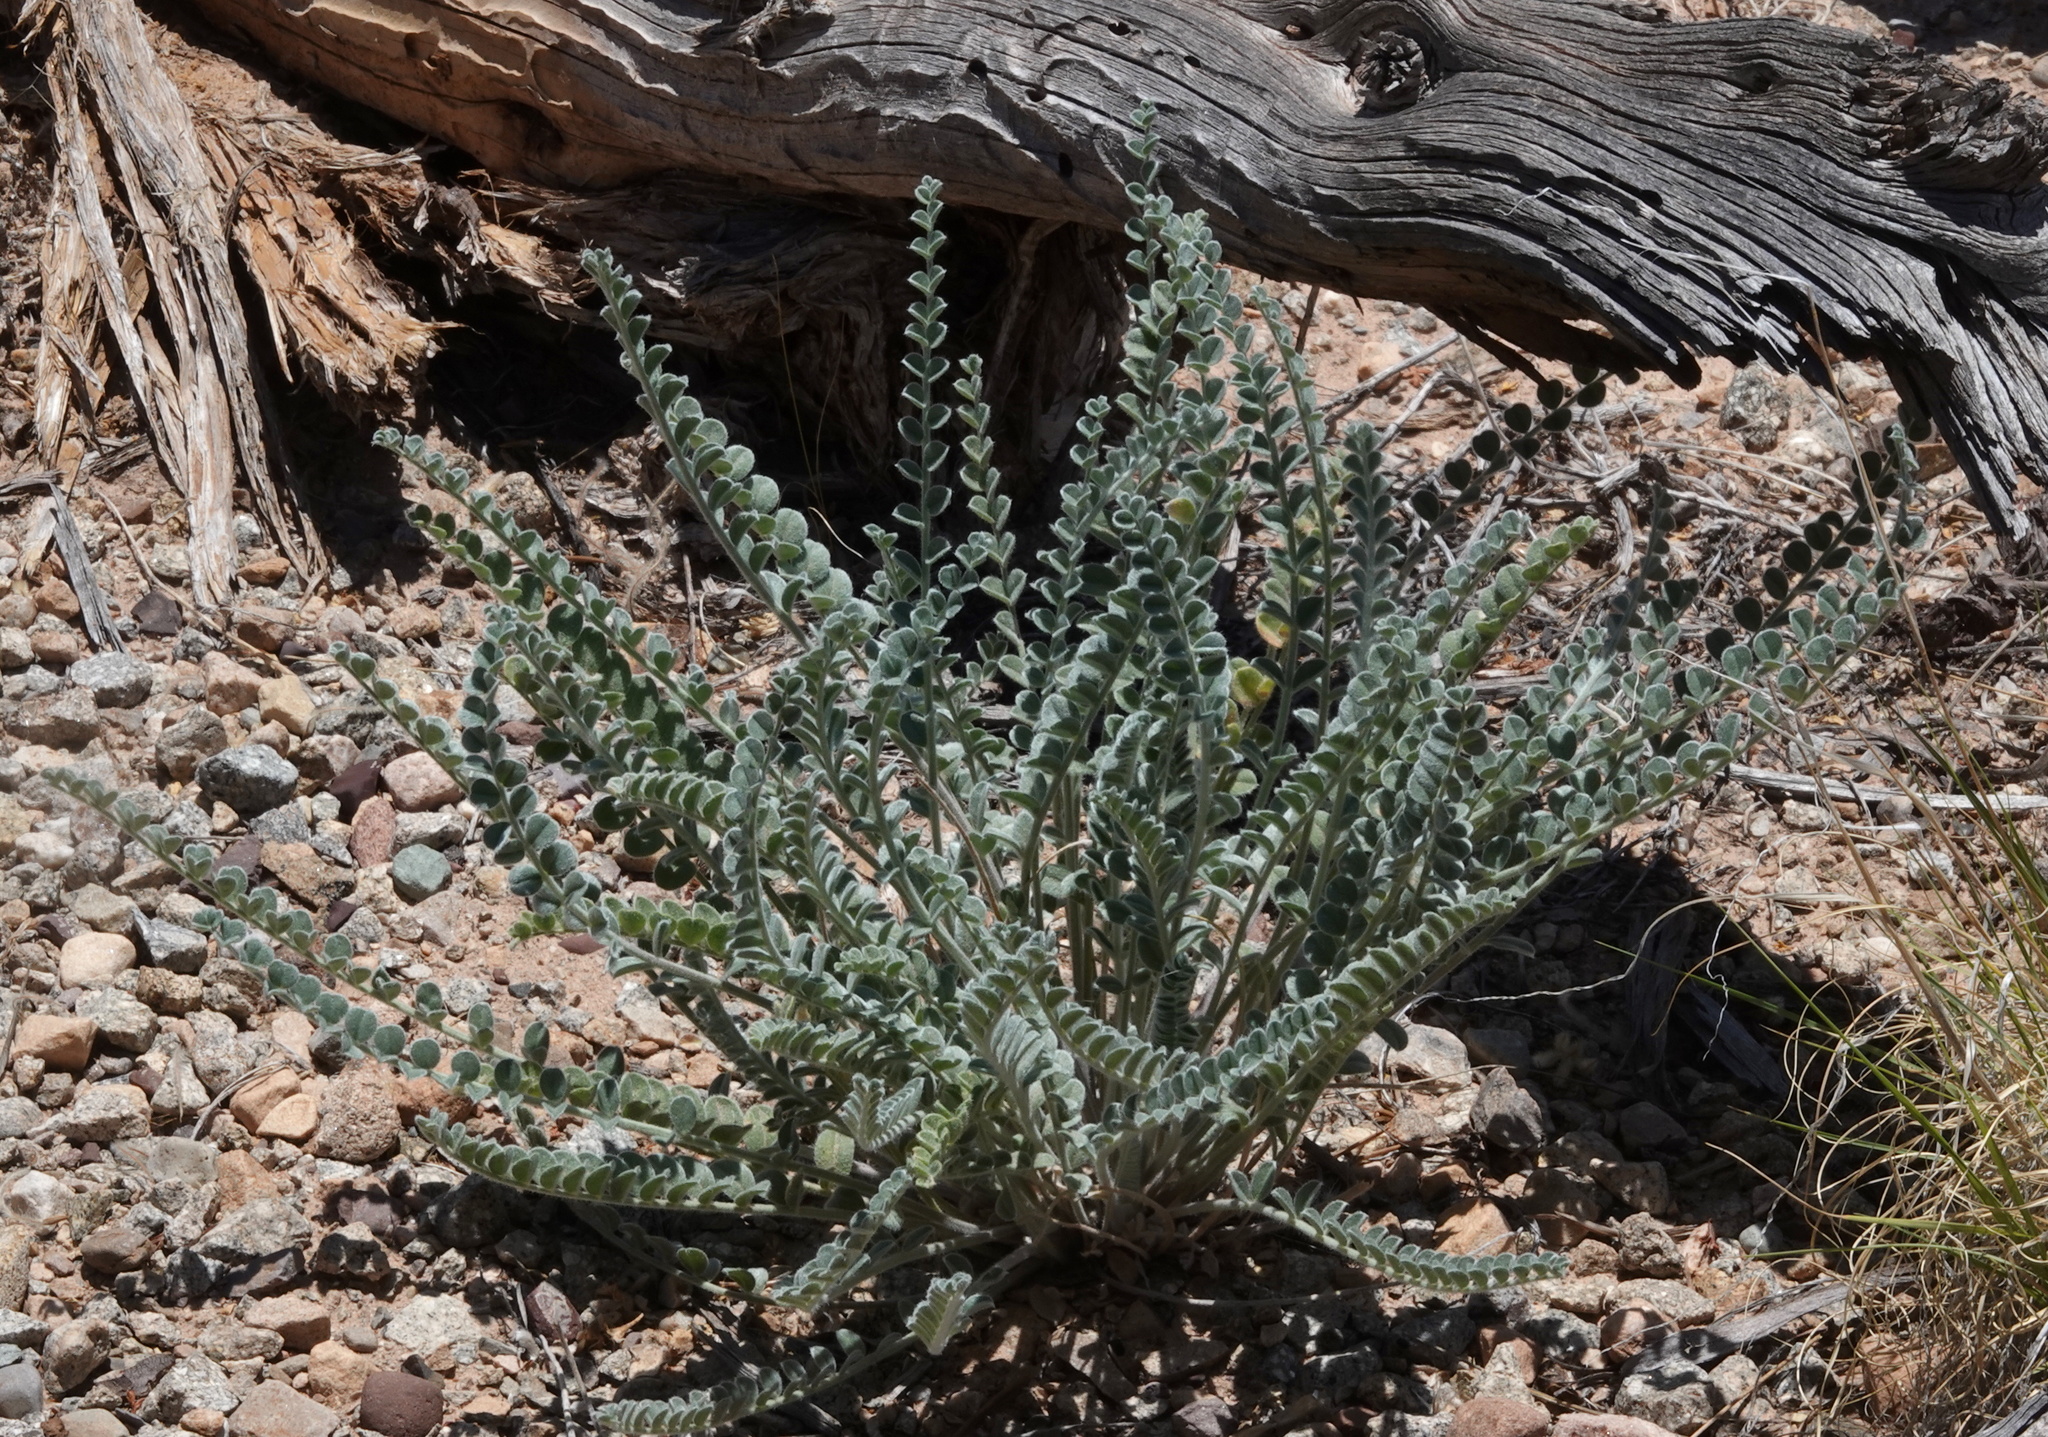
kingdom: Plantae
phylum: Tracheophyta
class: Magnoliopsida
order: Fabales
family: Fabaceae
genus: Astragalus
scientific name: Astragalus mollissimus
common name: Woolly locoweed
